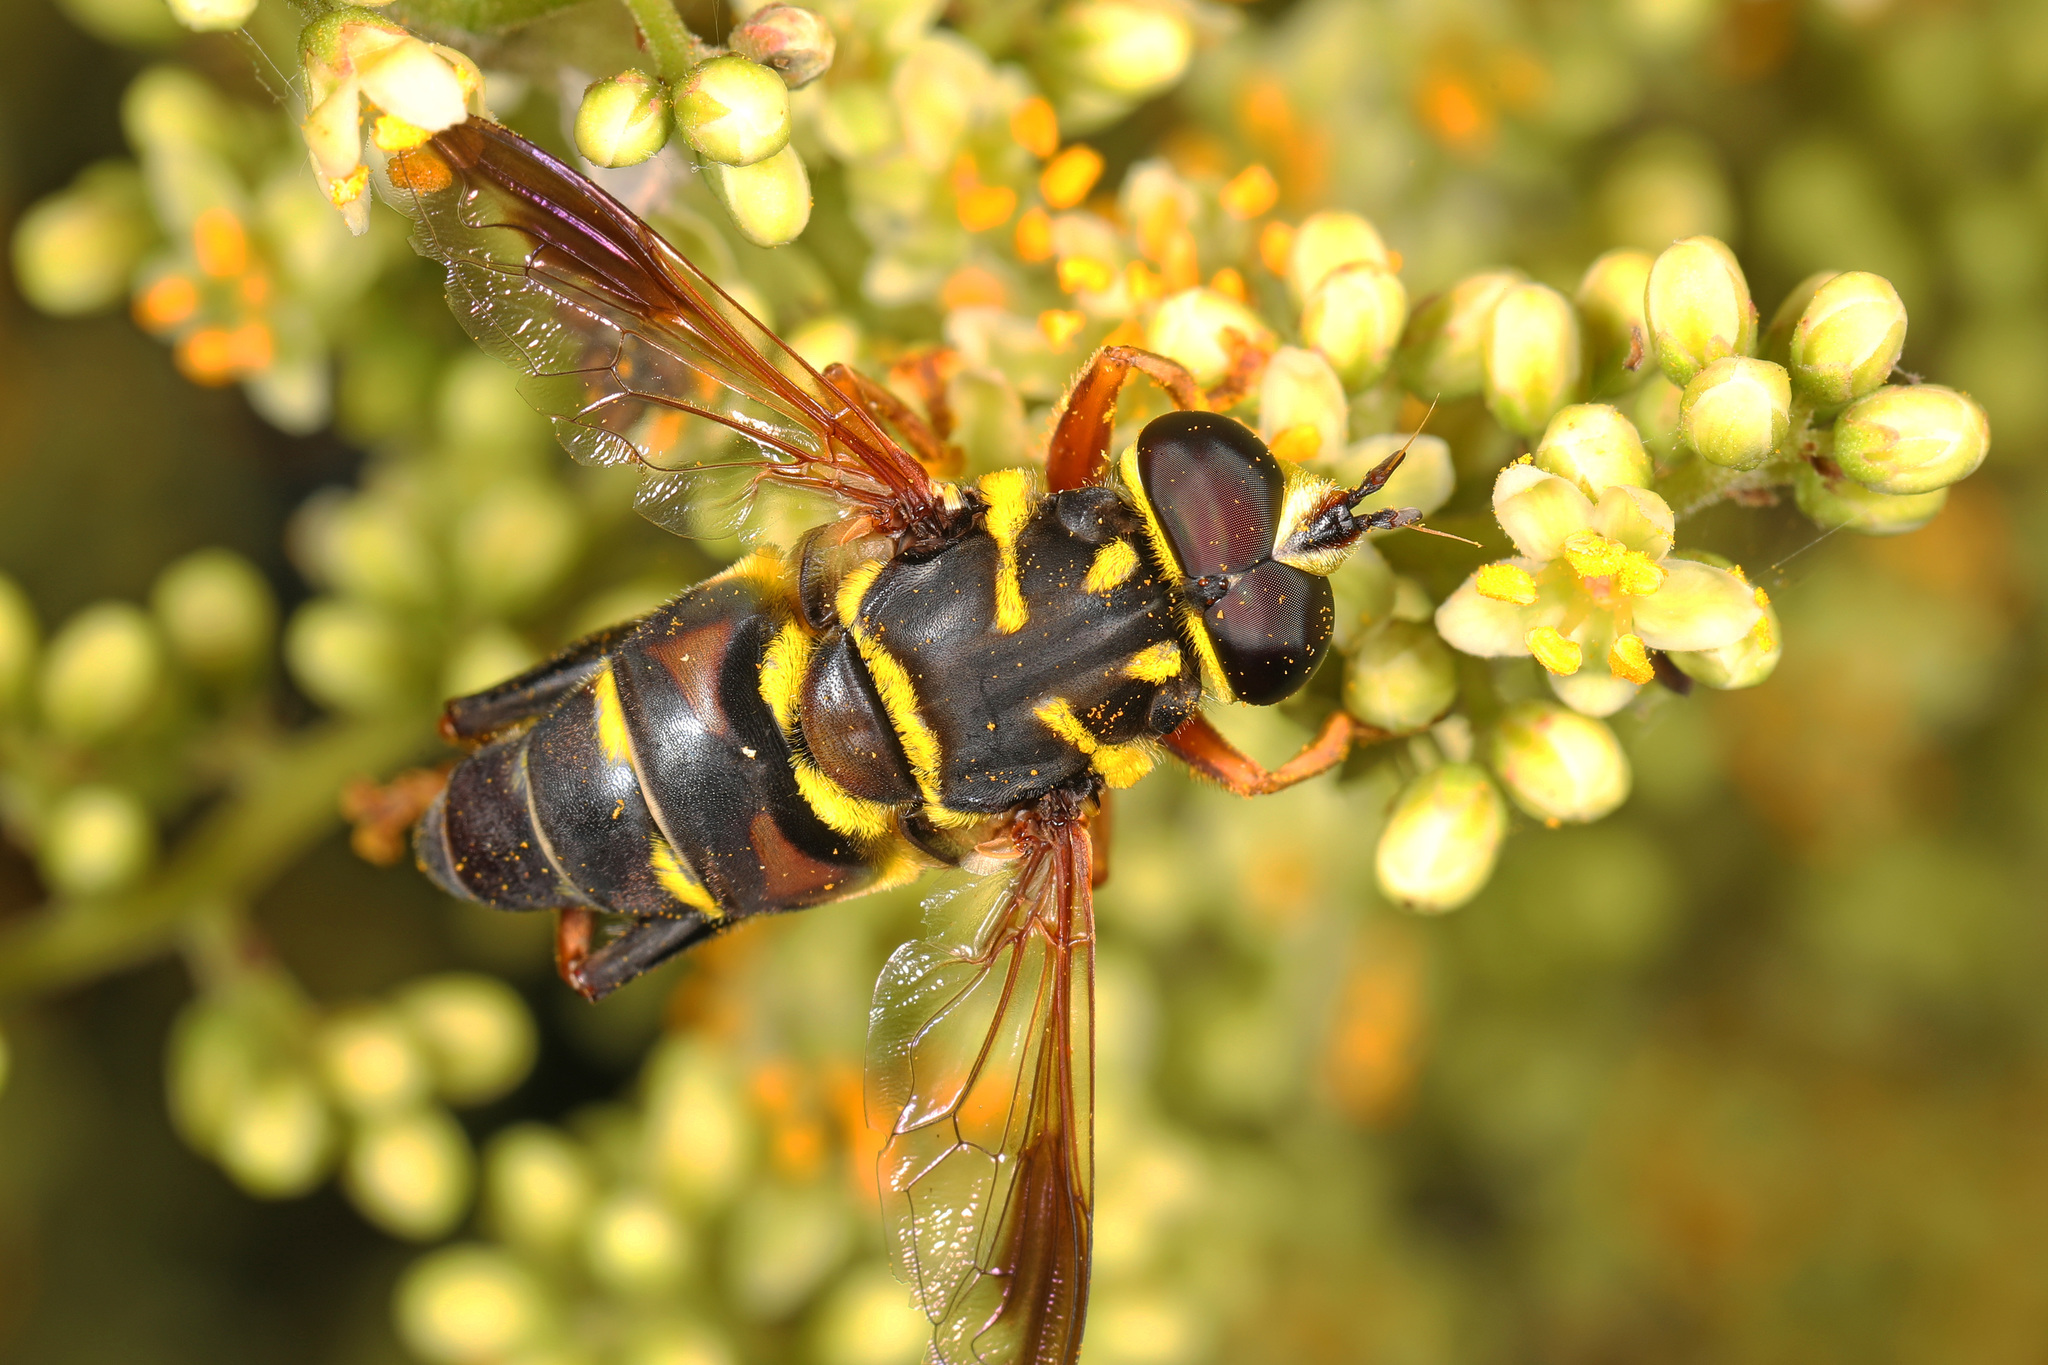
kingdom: Animalia
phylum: Arthropoda
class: Insecta
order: Diptera
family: Syrphidae
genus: Meromacrus
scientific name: Meromacrus acutus
